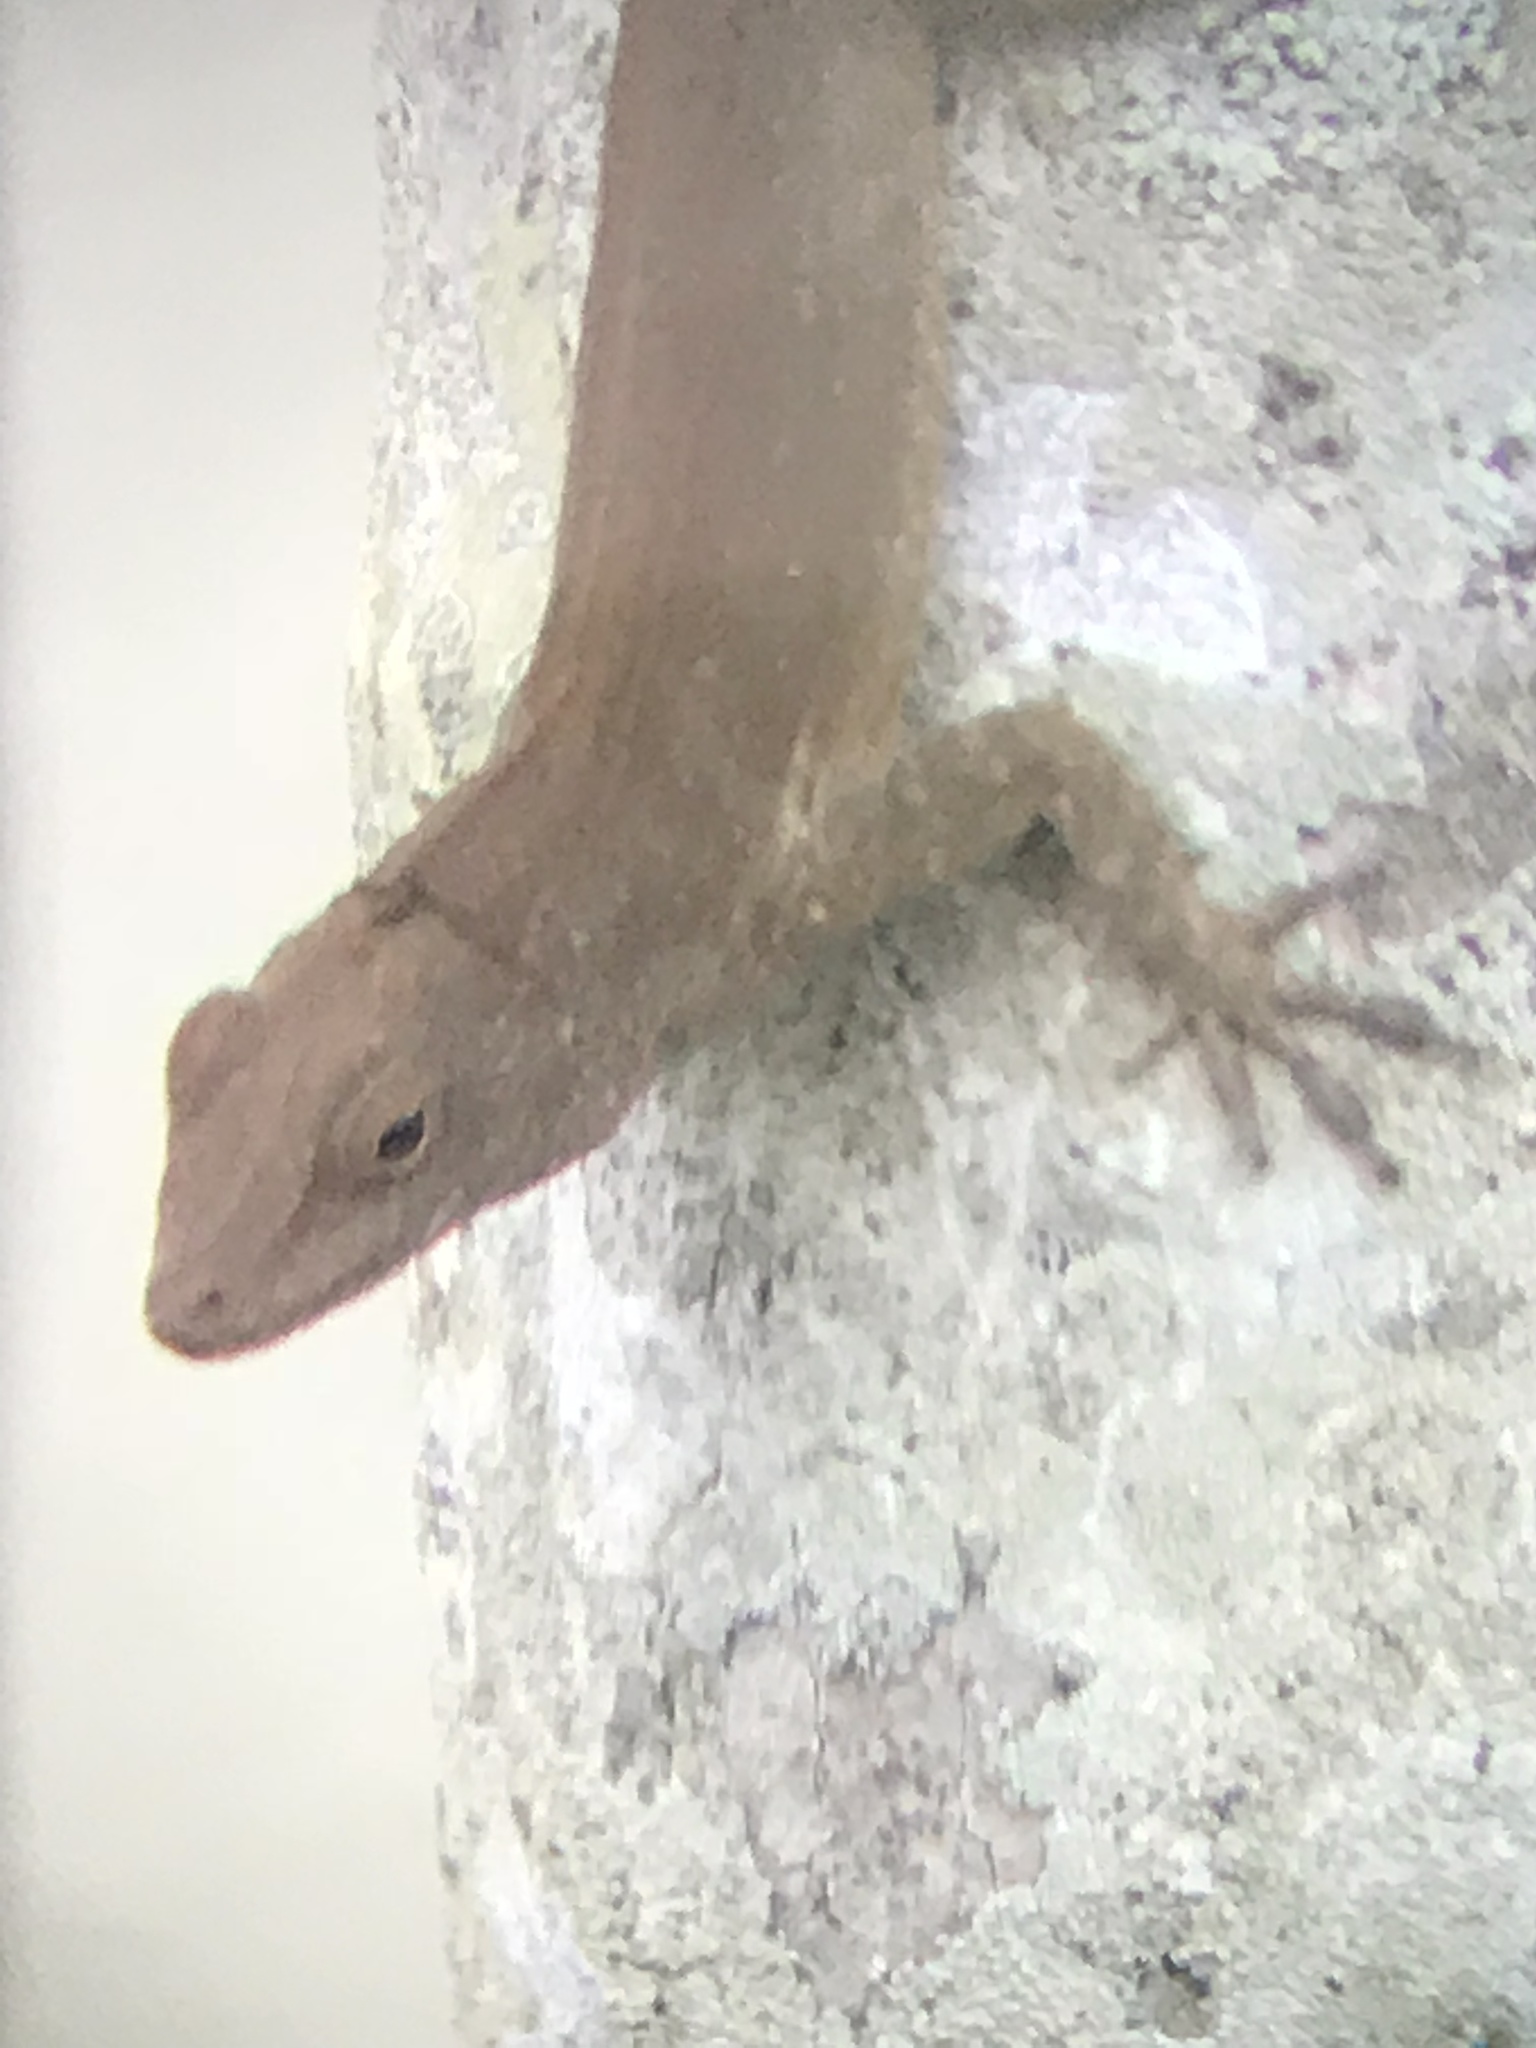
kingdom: Animalia
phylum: Chordata
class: Squamata
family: Dactyloidae
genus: Anolis
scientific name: Anolis cristatellus
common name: Crested anole
